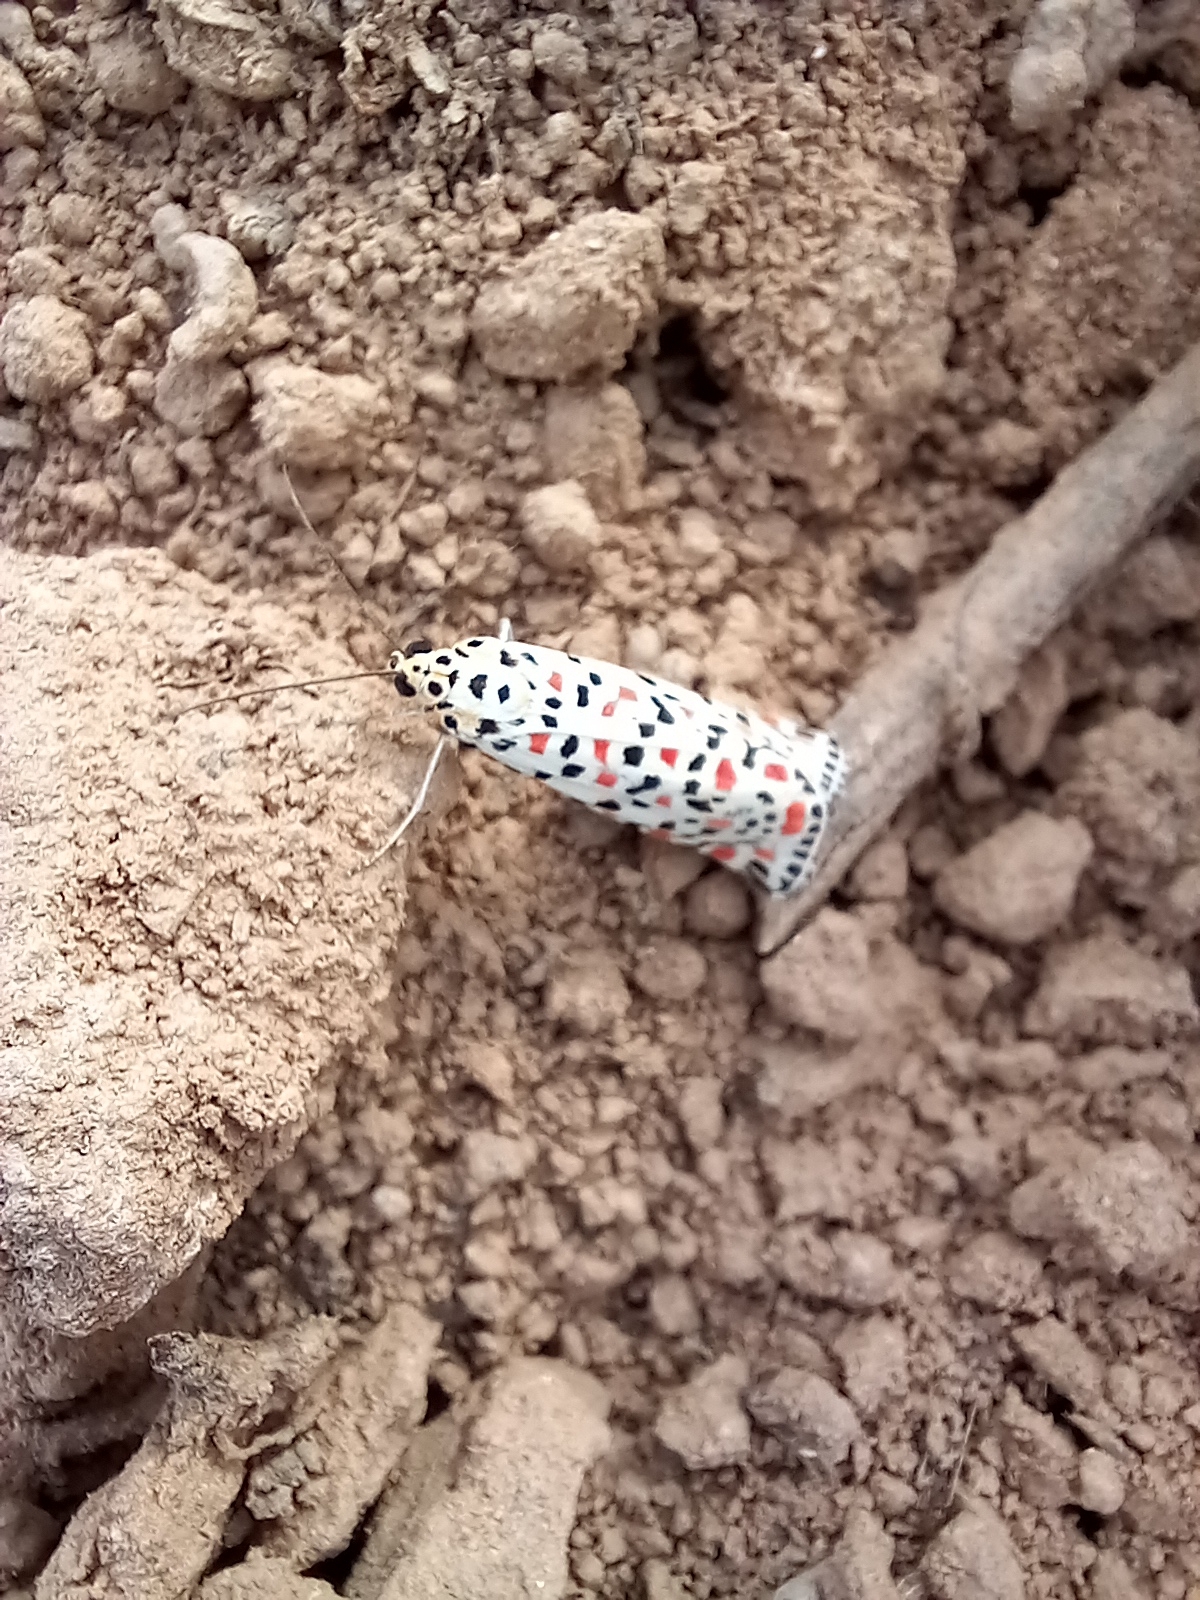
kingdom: Animalia
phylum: Arthropoda
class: Insecta
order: Lepidoptera
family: Erebidae
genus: Utetheisa
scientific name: Utetheisa pulchella
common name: Crimson speckled
